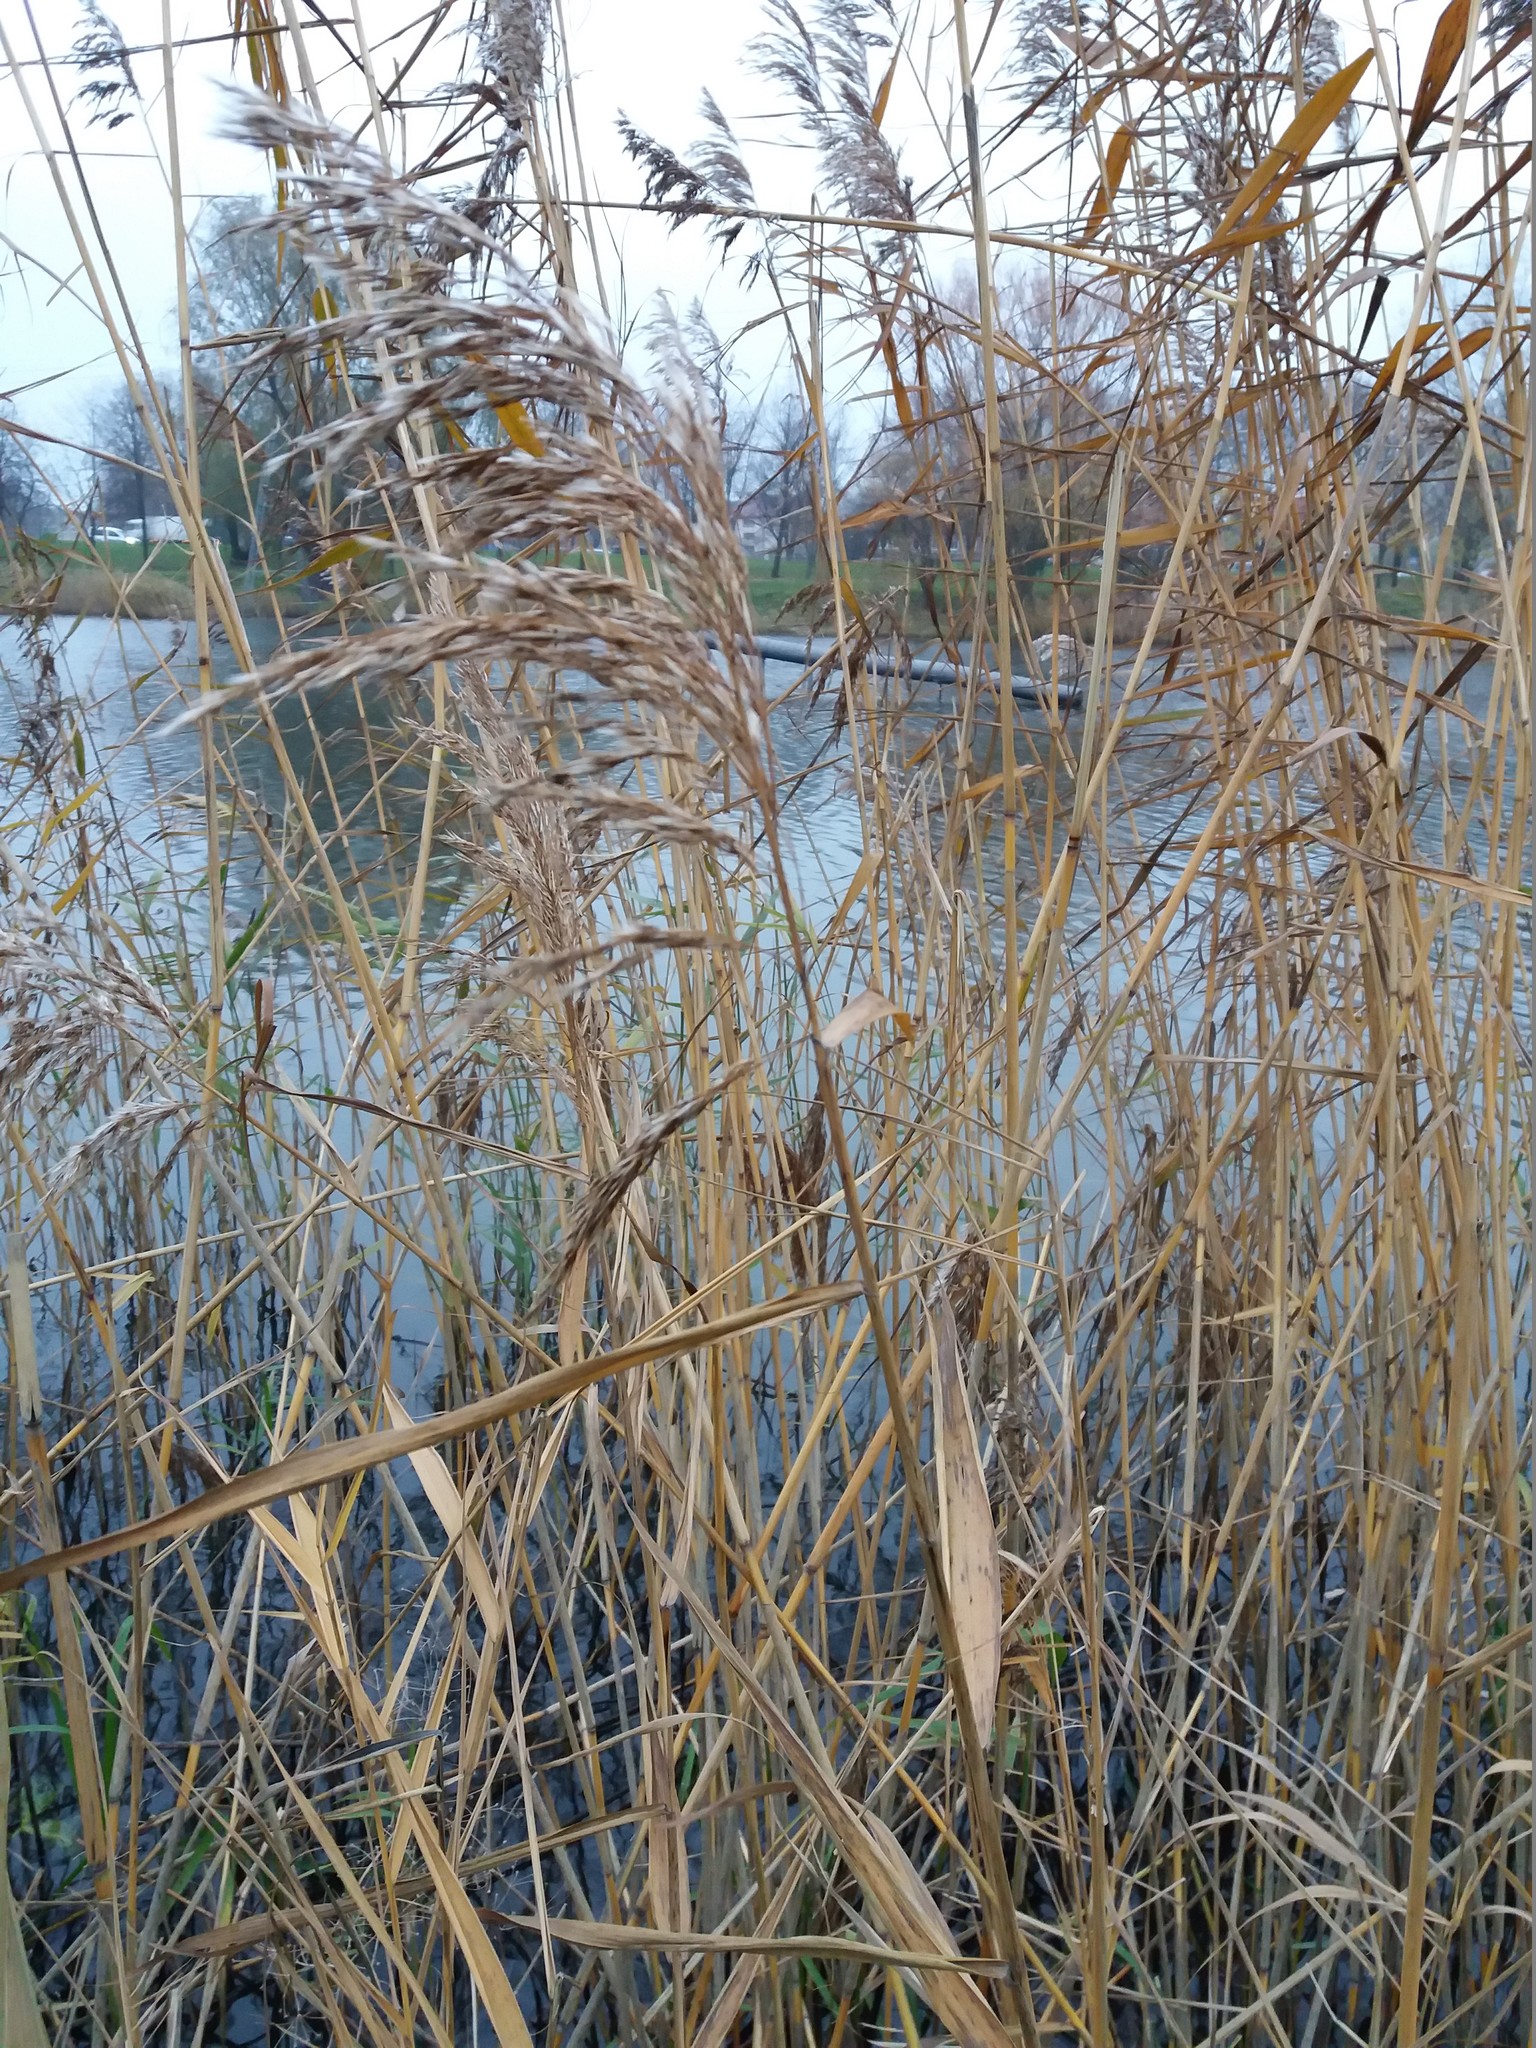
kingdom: Plantae
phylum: Tracheophyta
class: Liliopsida
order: Poales
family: Poaceae
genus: Phragmites
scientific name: Phragmites australis
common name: Common reed
